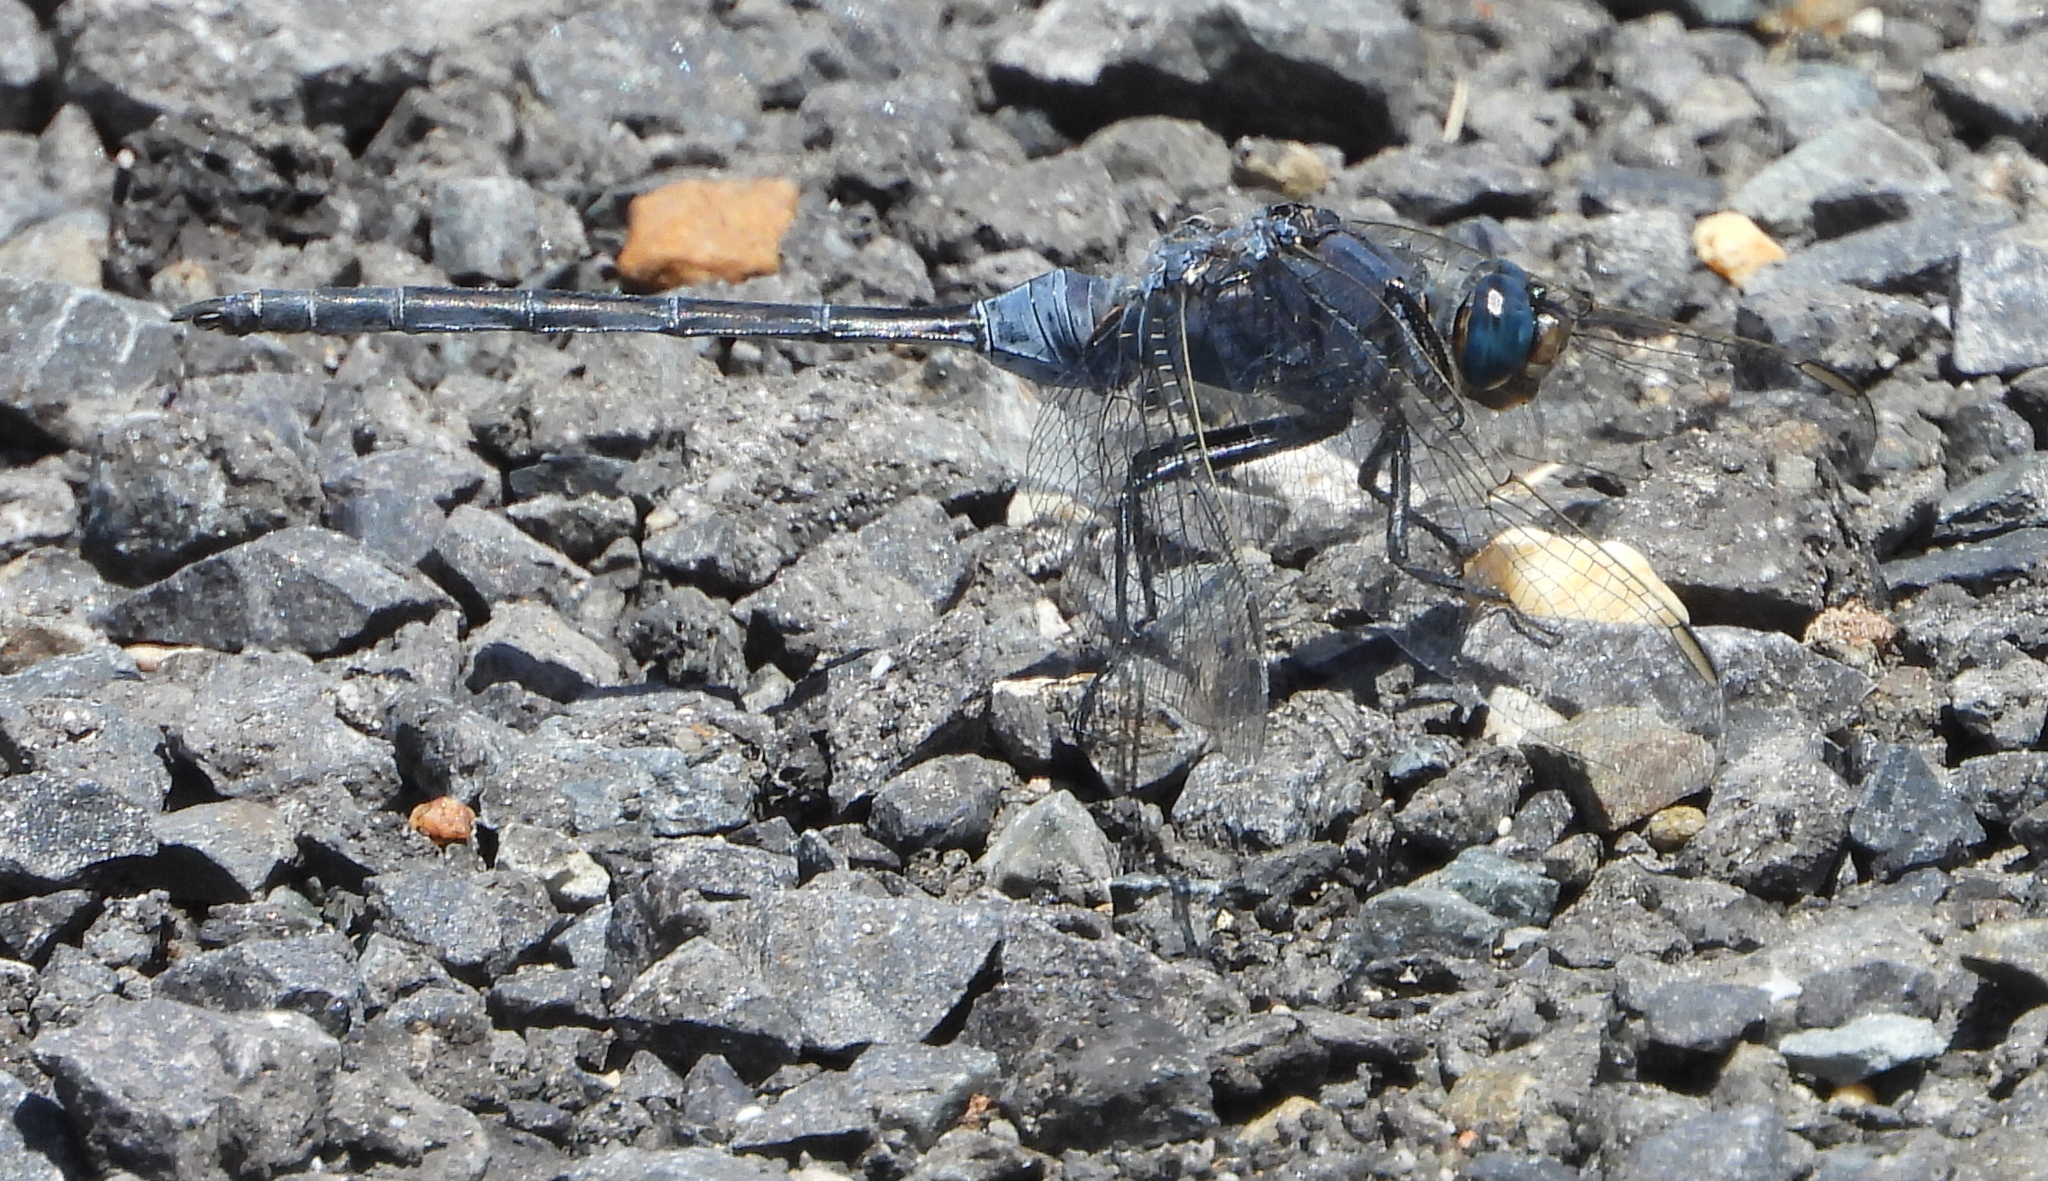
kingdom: Animalia
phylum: Arthropoda
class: Insecta
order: Odonata
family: Libellulidae
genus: Orthetrum
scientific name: Orthetrum trinacria
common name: Long skimmer
